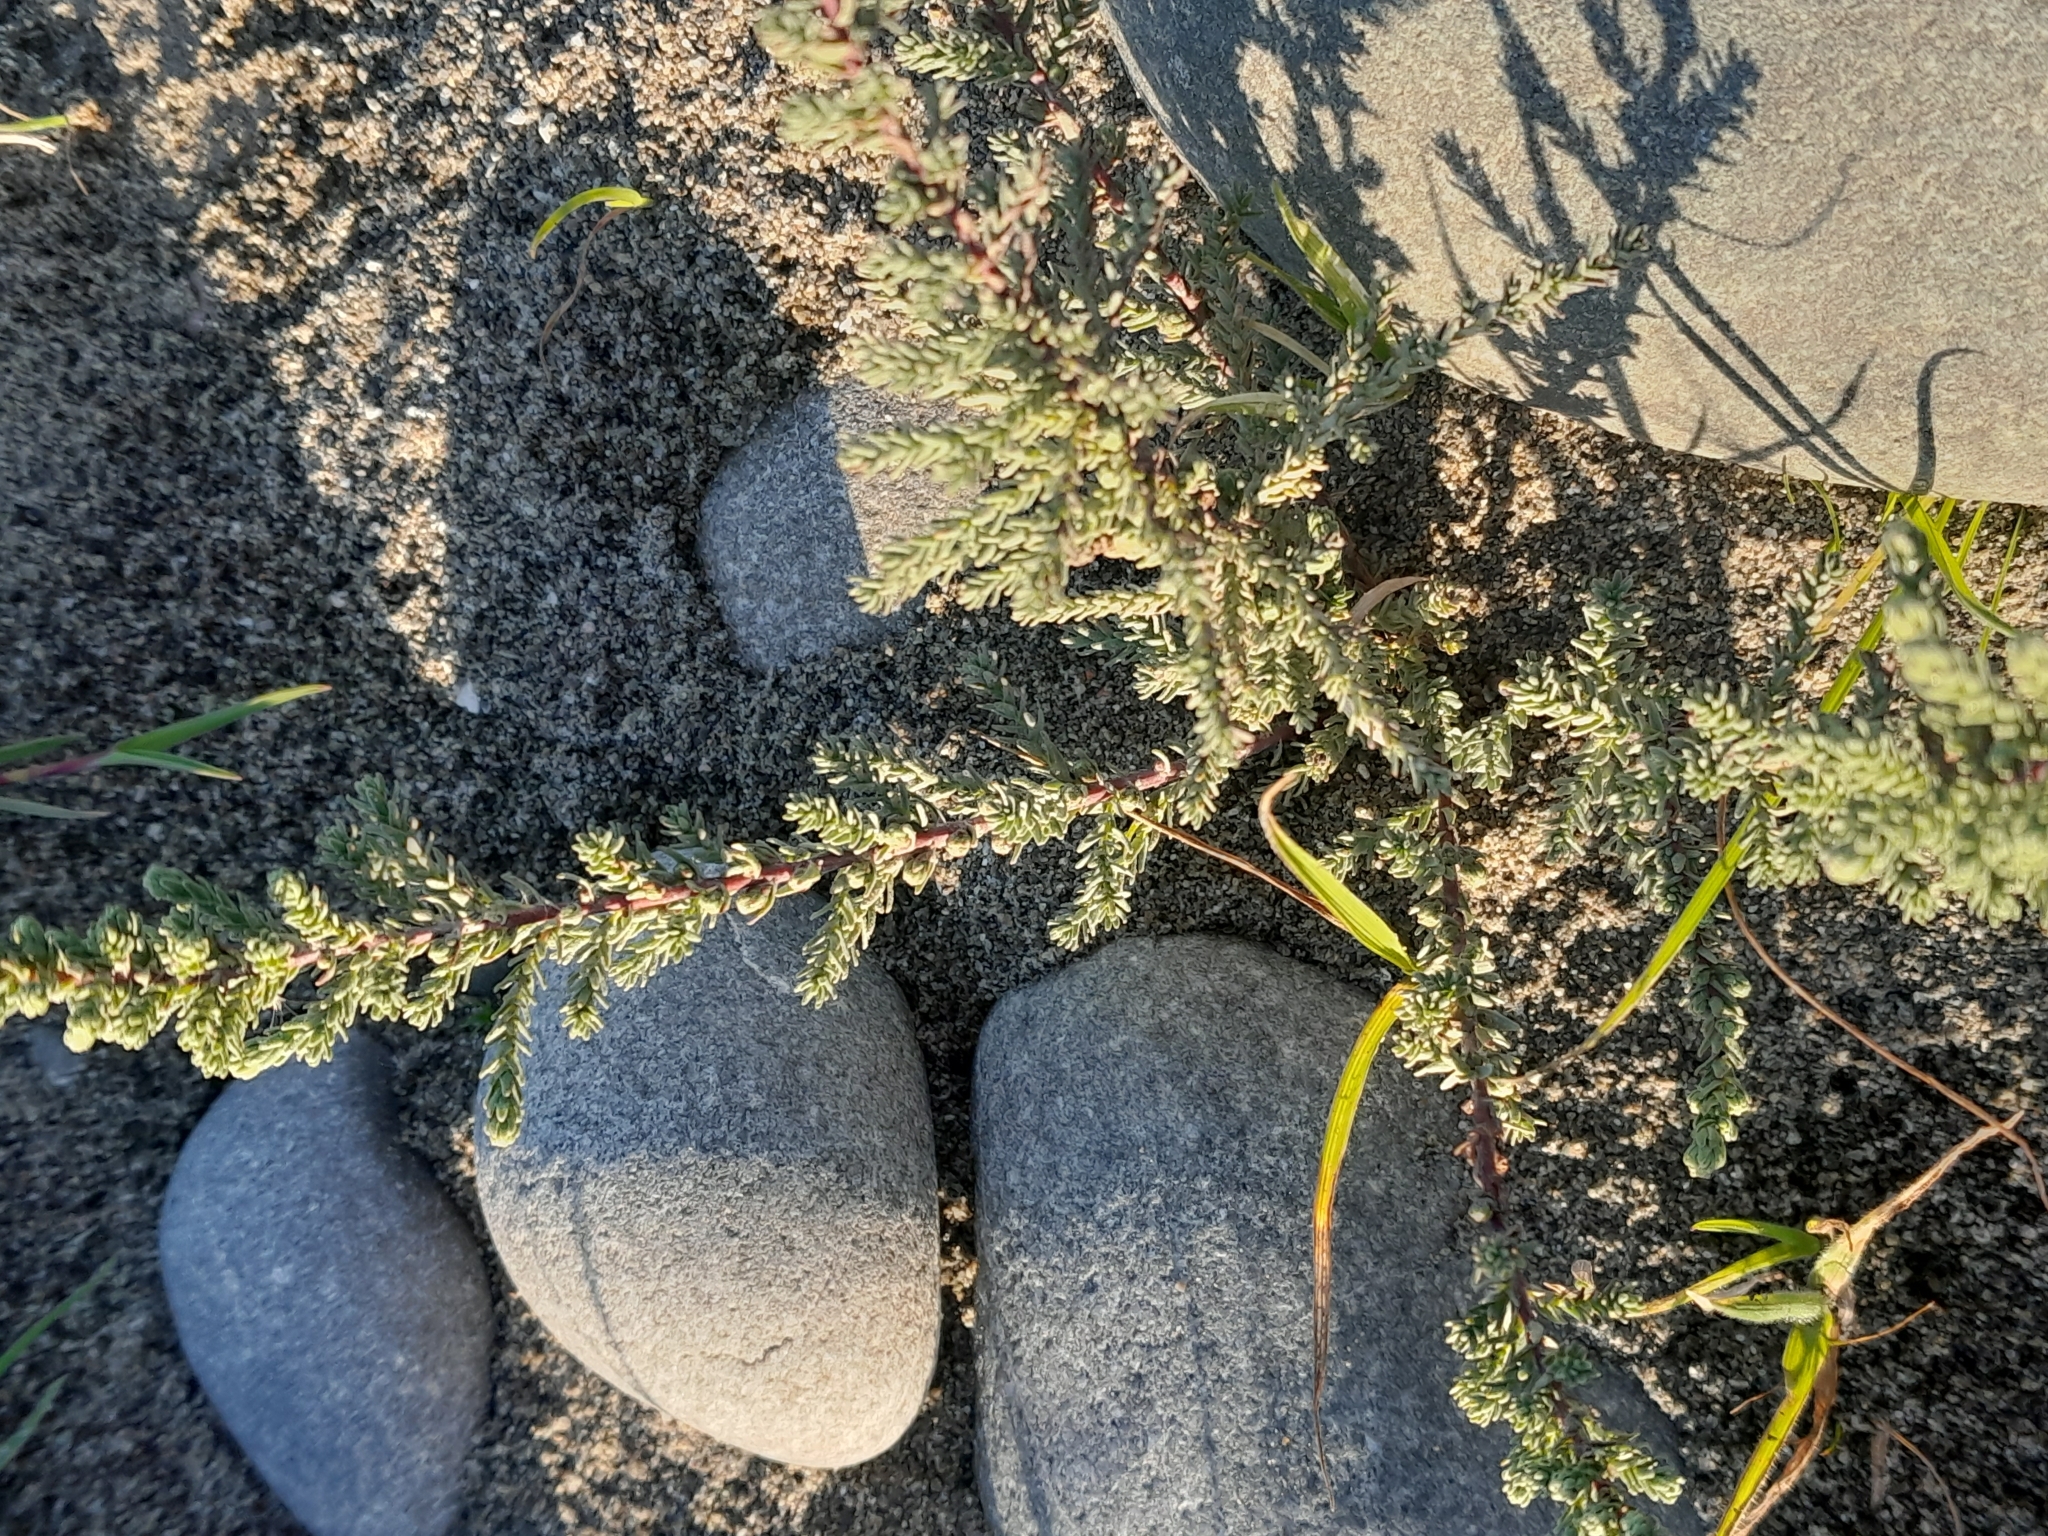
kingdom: Plantae
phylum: Tracheophyta
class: Magnoliopsida
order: Caryophyllales
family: Tamaricaceae
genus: Myricaria
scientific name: Myricaria germanica
